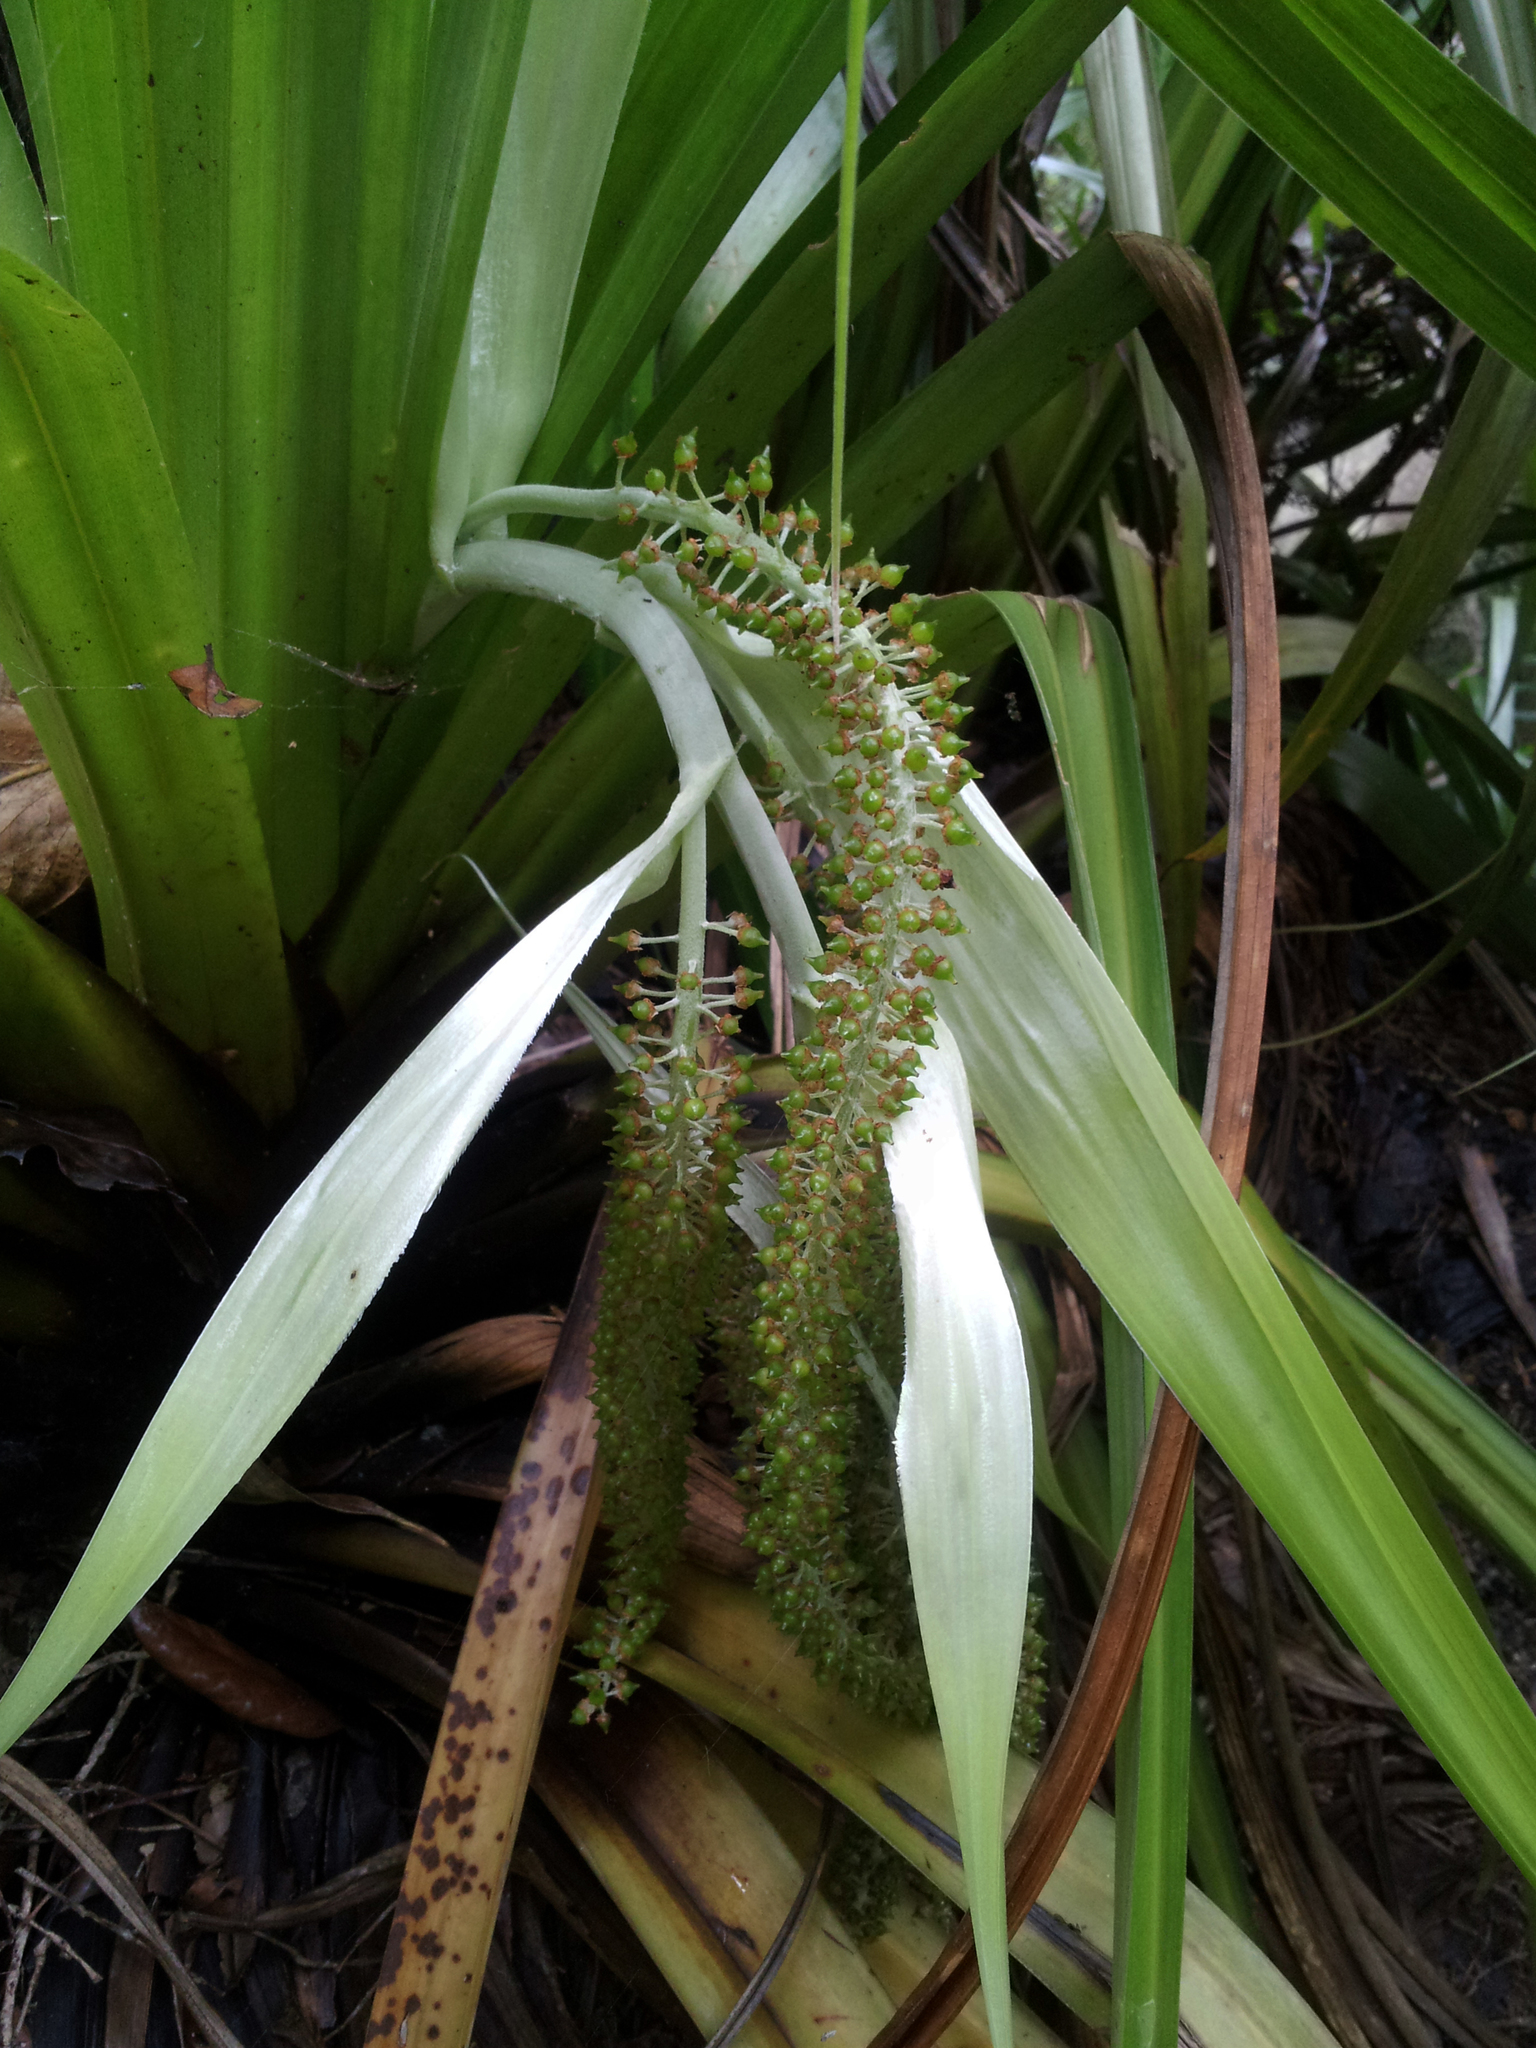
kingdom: Plantae
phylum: Tracheophyta
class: Liliopsida
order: Asparagales
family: Asteliaceae
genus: Astelia
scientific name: Astelia hastata
